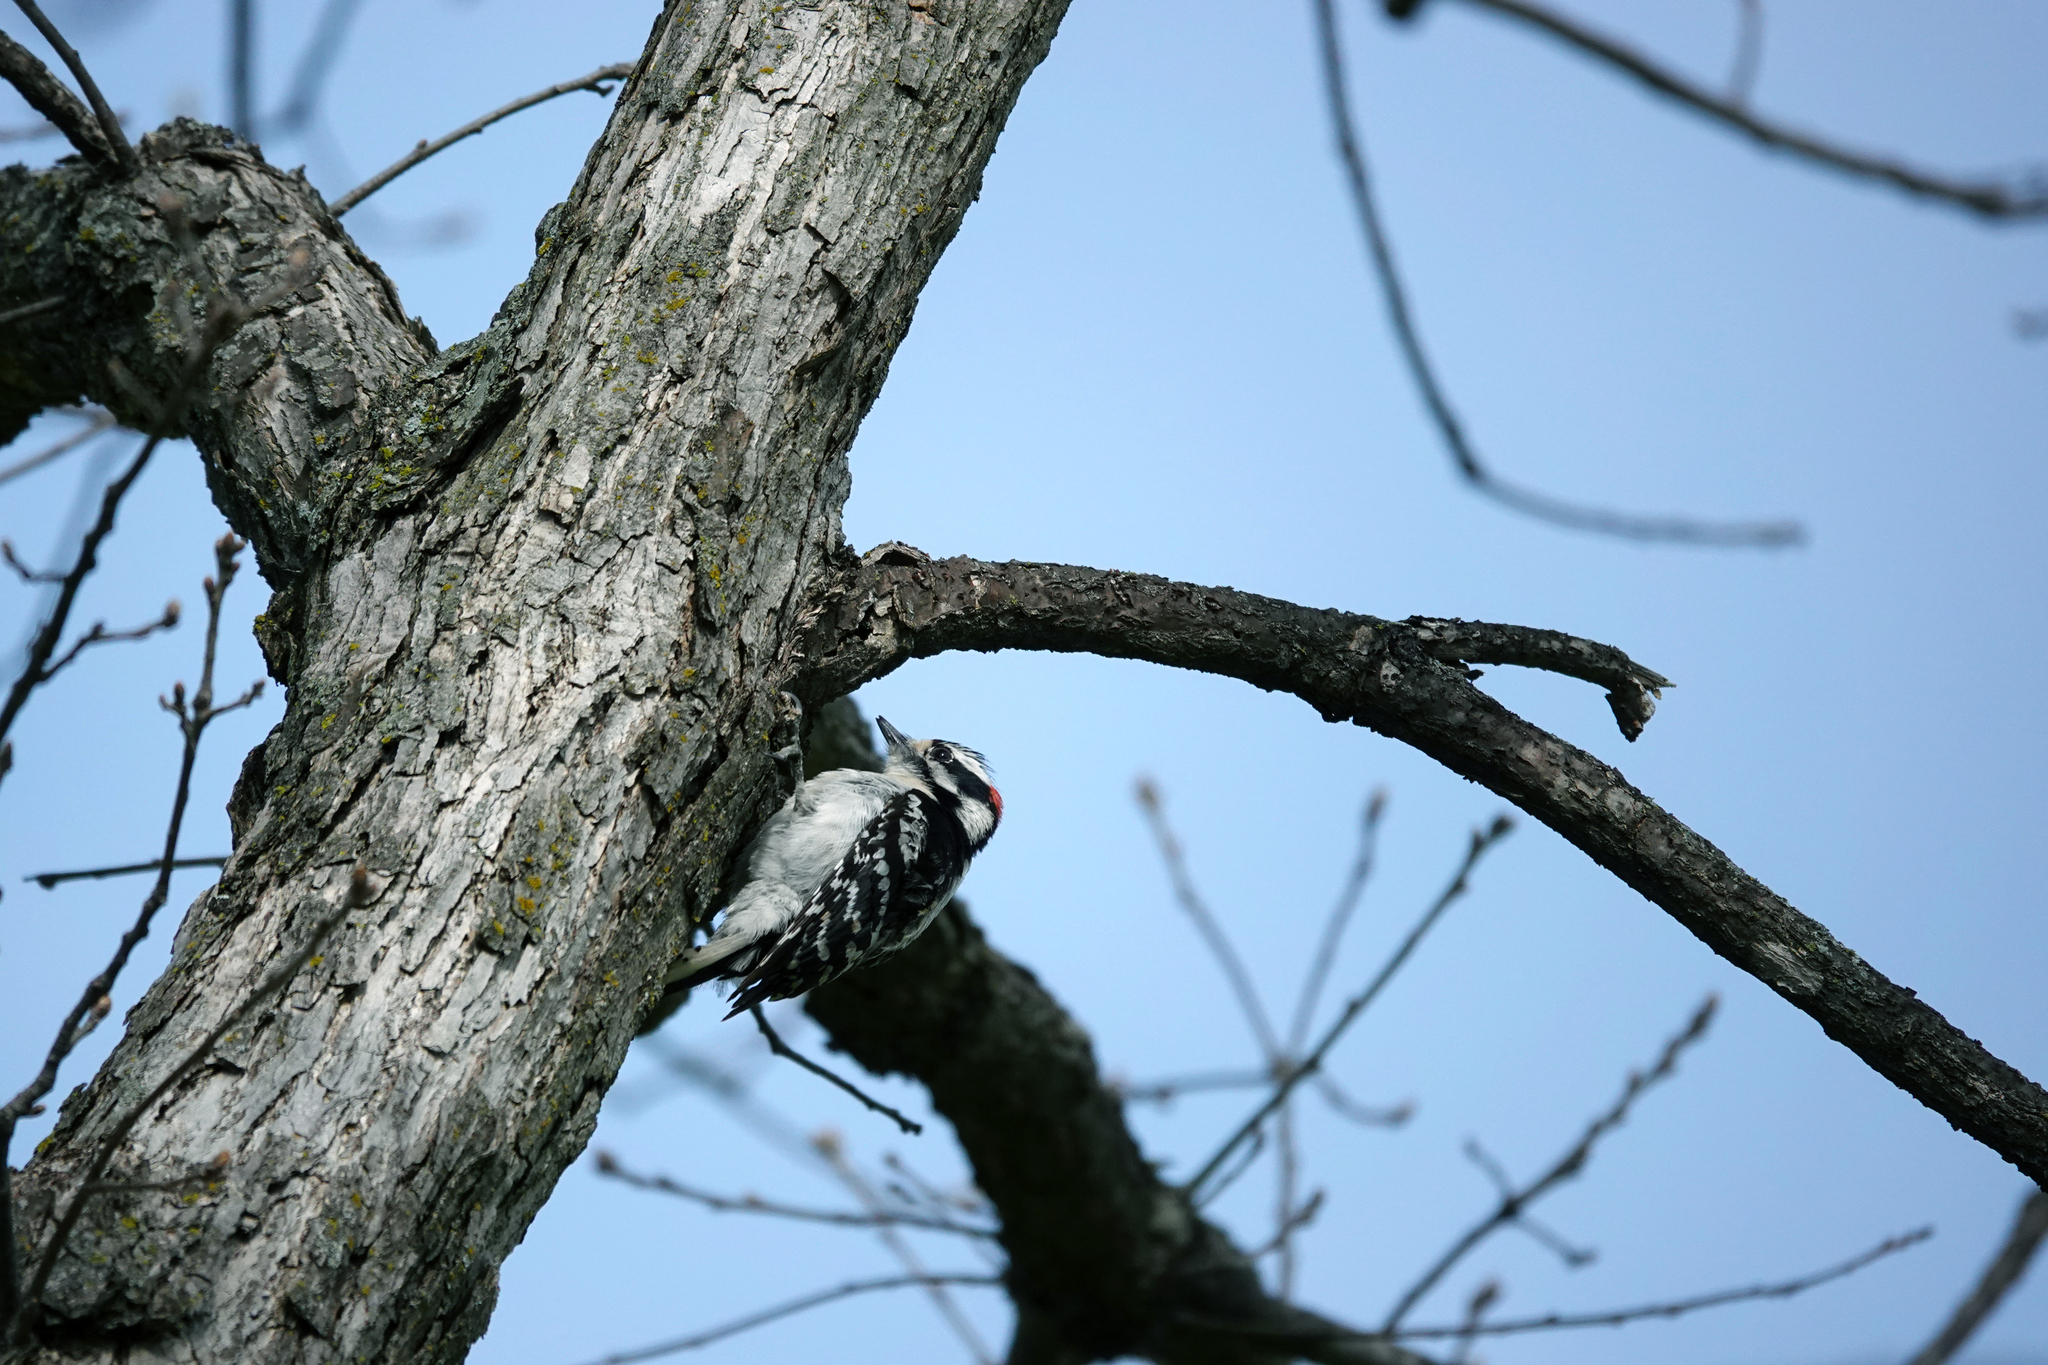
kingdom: Animalia
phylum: Chordata
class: Aves
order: Piciformes
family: Picidae
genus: Dryobates
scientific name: Dryobates pubescens
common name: Downy woodpecker
